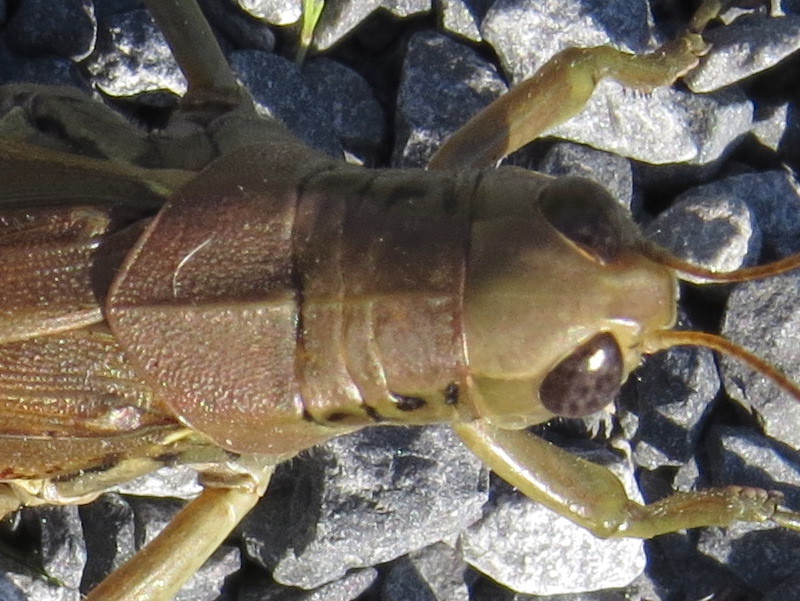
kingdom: Animalia
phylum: Arthropoda
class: Insecta
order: Orthoptera
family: Acrididae
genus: Melanoplus
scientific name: Melanoplus differentialis
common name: Differential grasshopper
